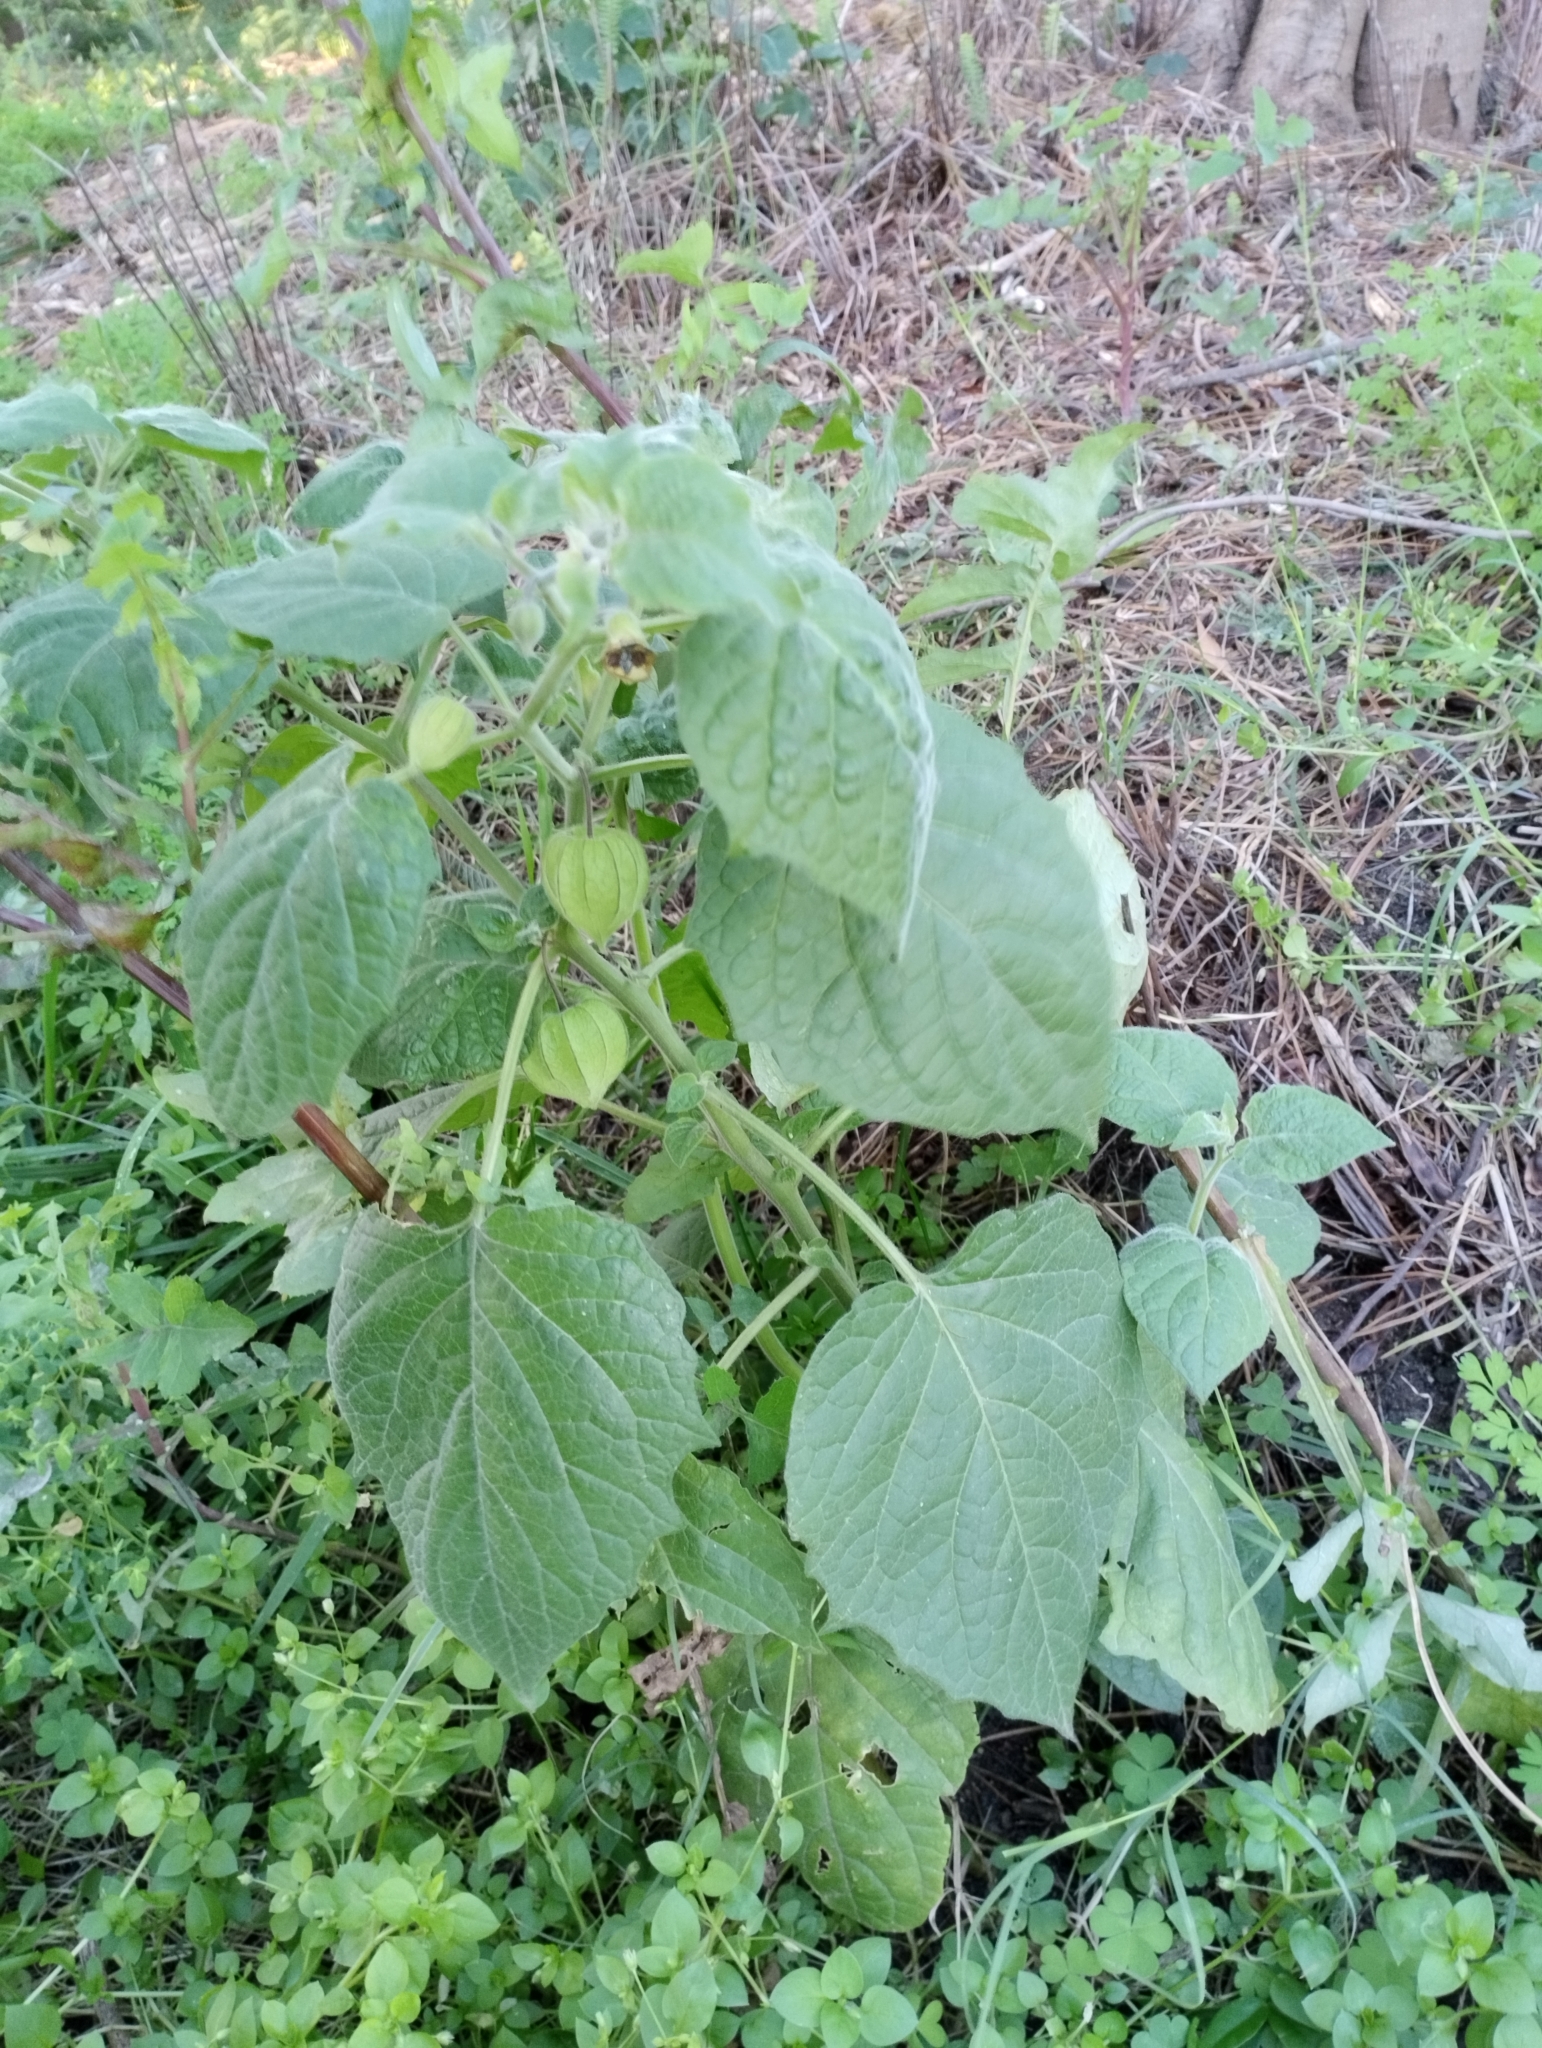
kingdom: Plantae
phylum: Tracheophyta
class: Magnoliopsida
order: Solanales
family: Solanaceae
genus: Physalis
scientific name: Physalis peruviana
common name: Cape-gooseberry
